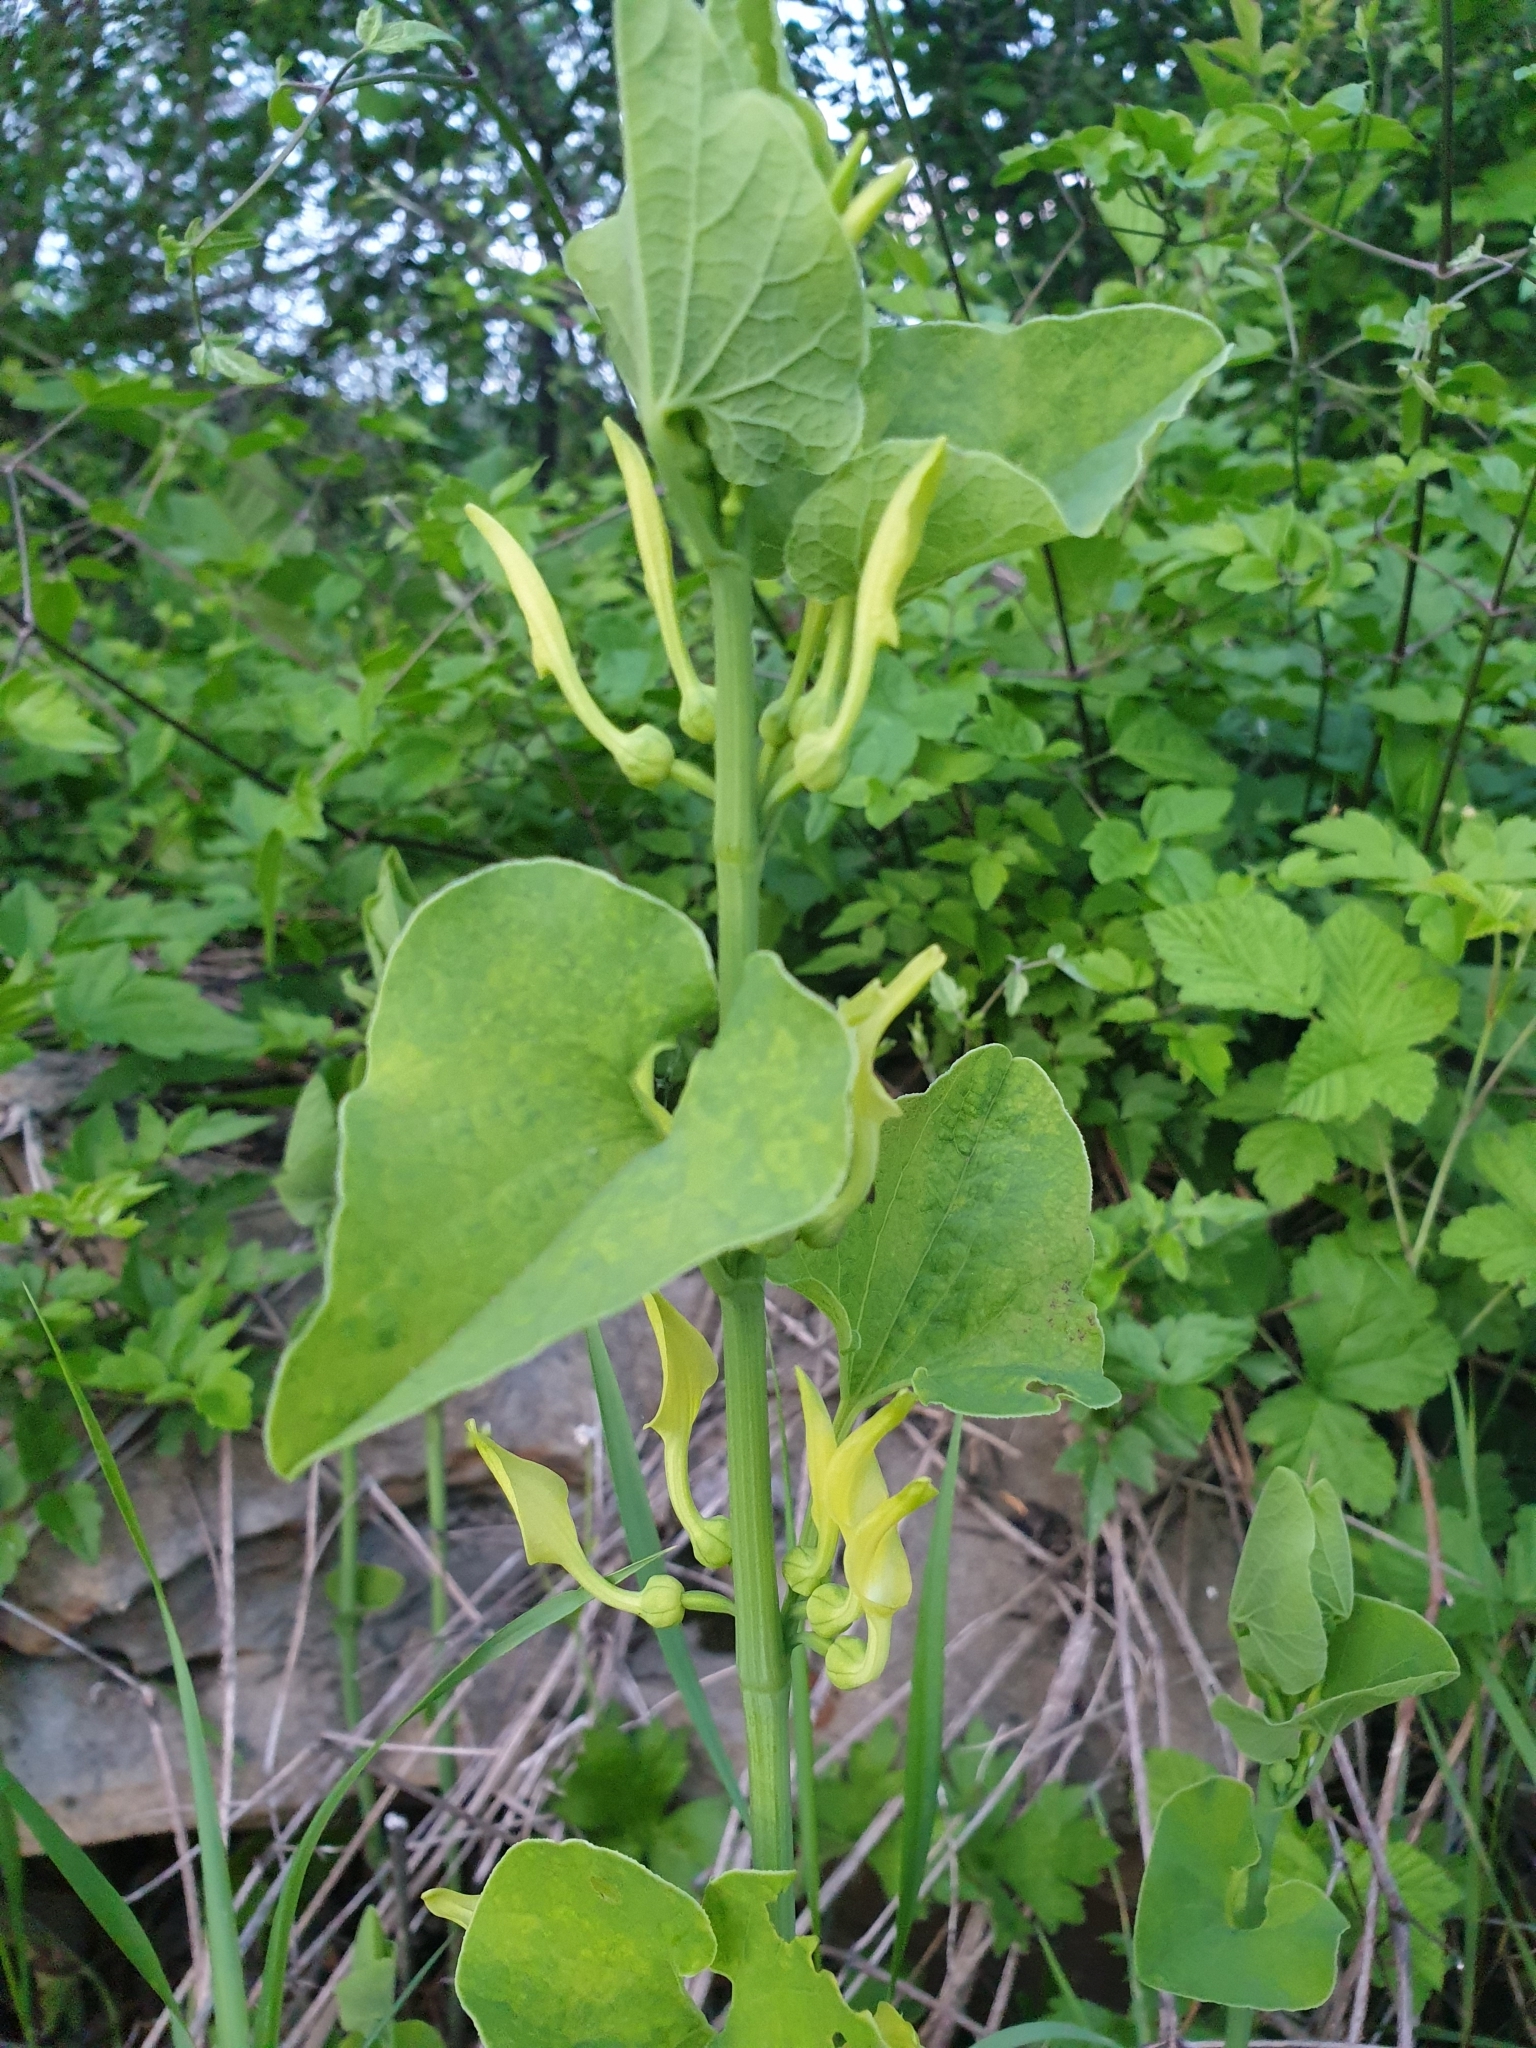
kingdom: Plantae
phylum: Tracheophyta
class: Magnoliopsida
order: Piperales
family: Aristolochiaceae
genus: Aristolochia
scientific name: Aristolochia clematitis
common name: Birthwort
